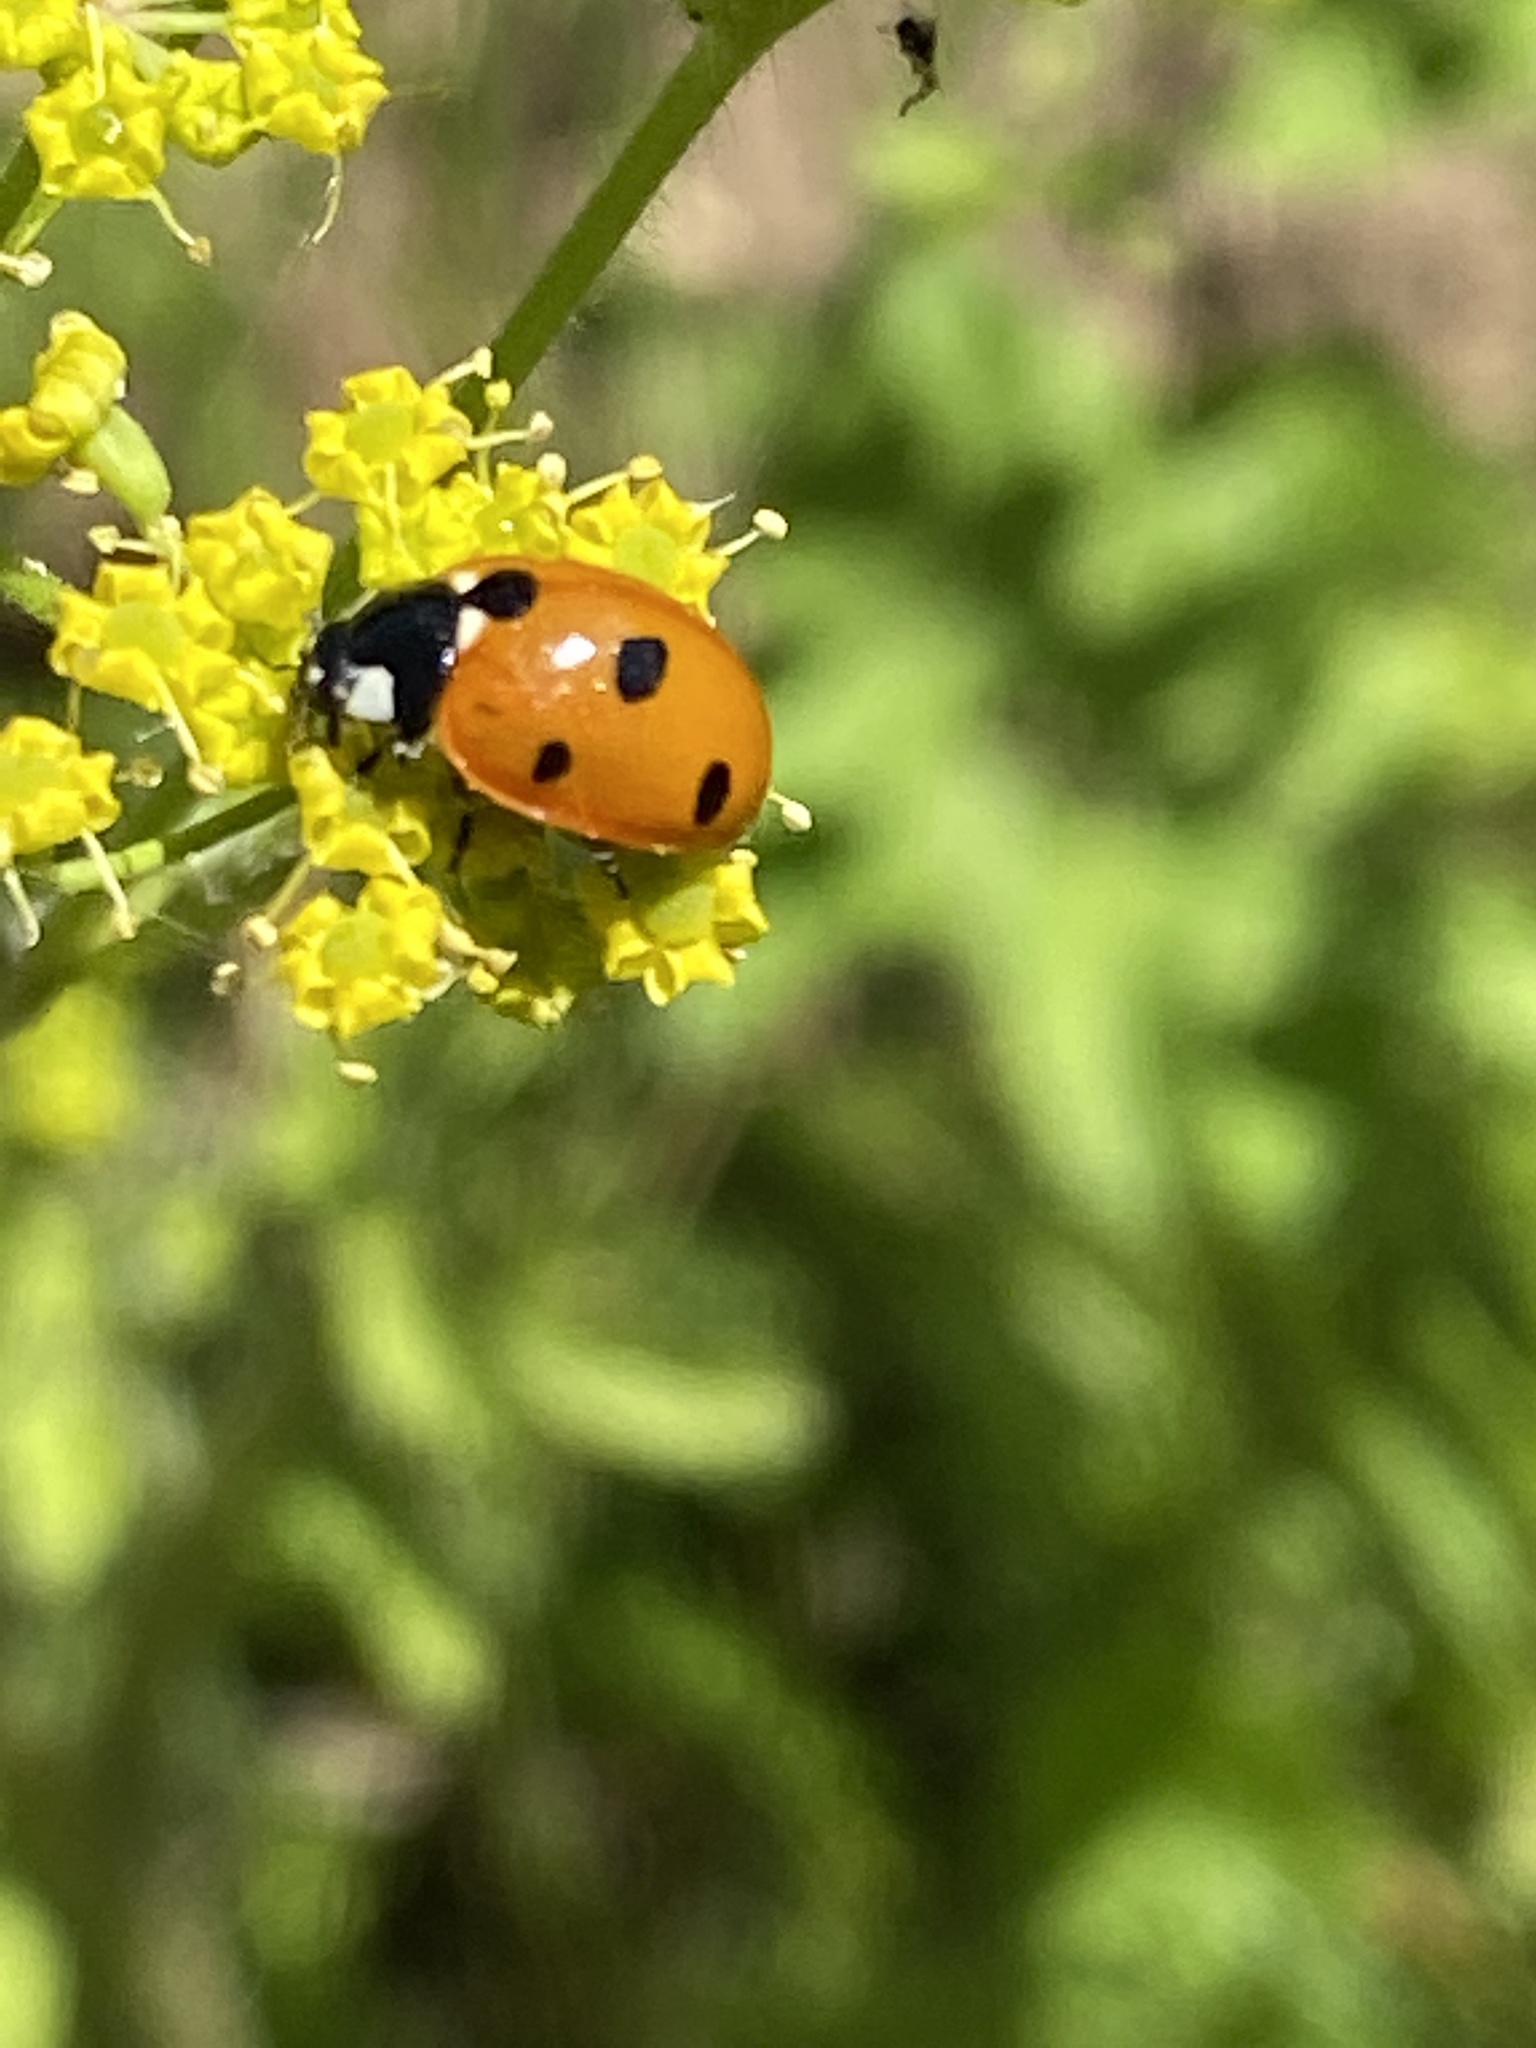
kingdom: Animalia
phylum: Arthropoda
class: Insecta
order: Coleoptera
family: Coccinellidae
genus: Coccinella
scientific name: Coccinella septempunctata
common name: Sevenspotted lady beetle
